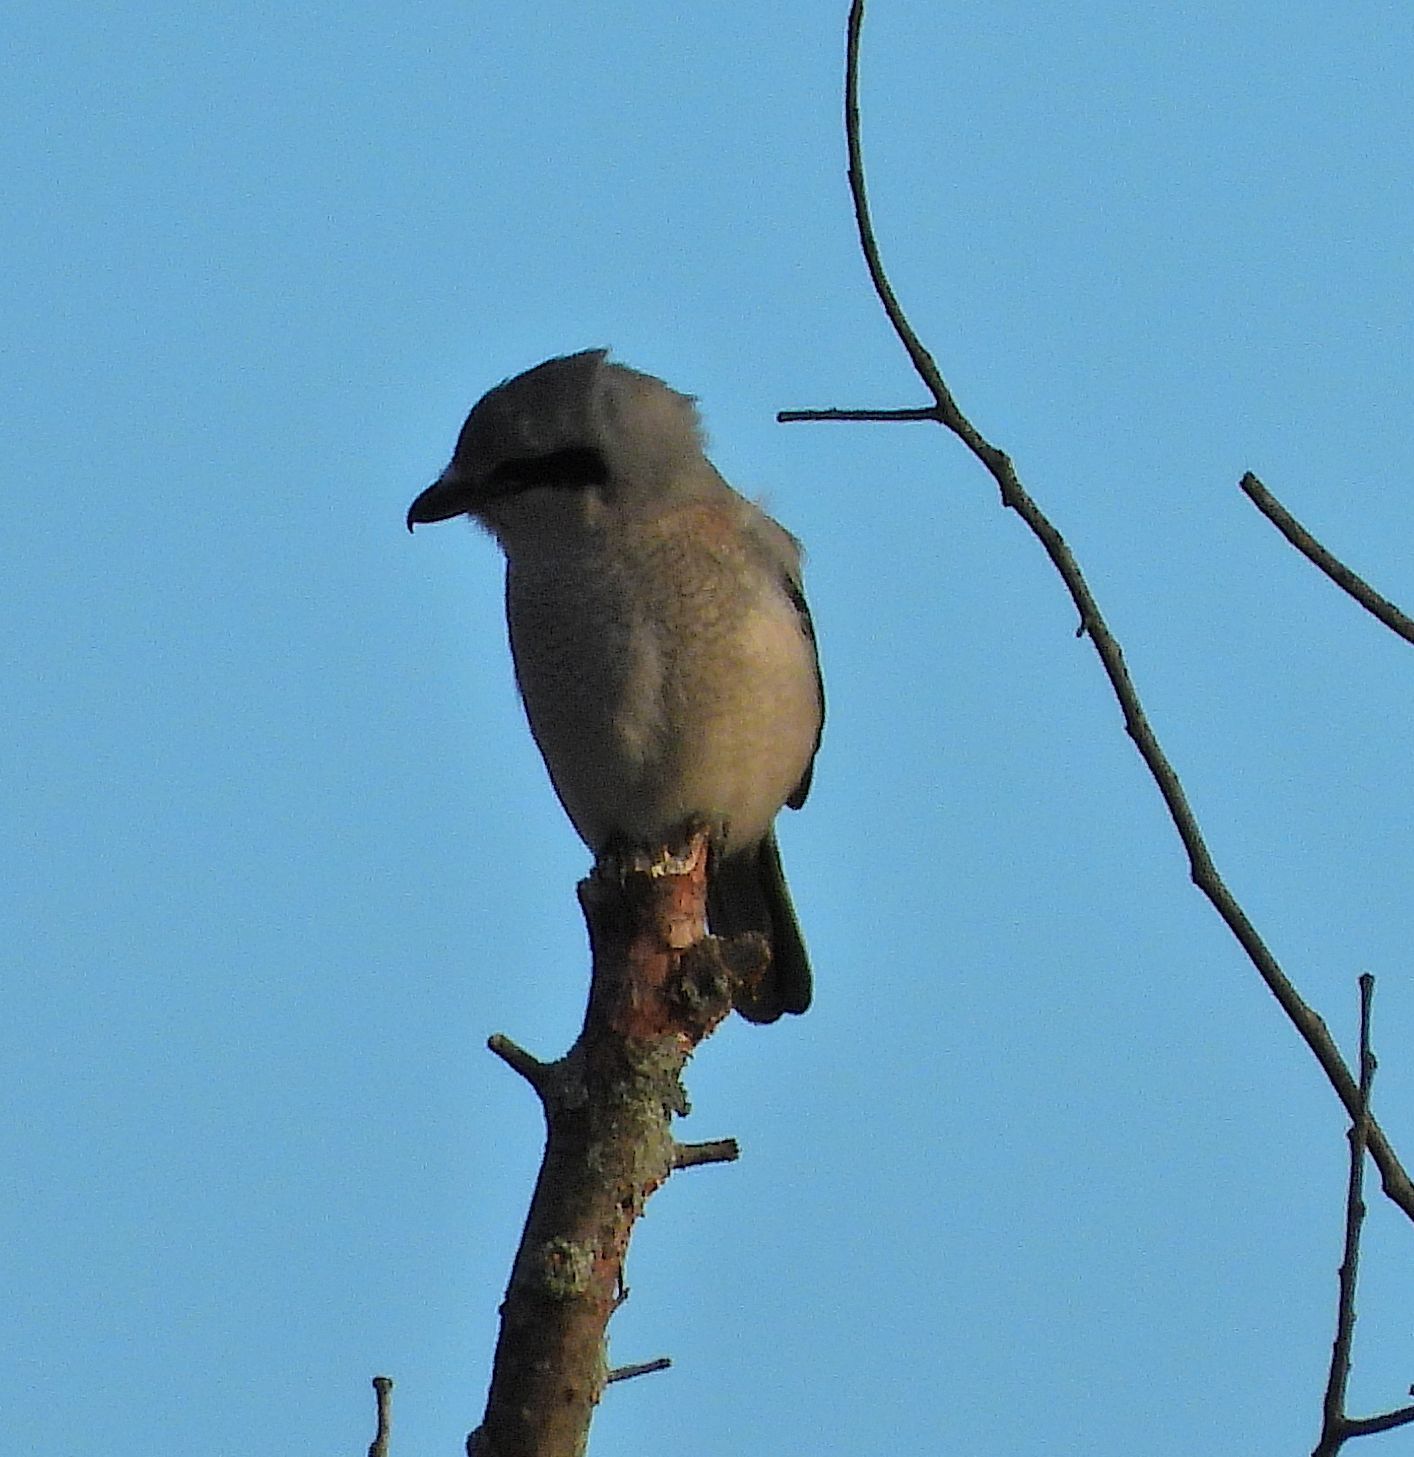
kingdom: Animalia
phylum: Chordata
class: Aves
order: Passeriformes
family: Laniidae
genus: Lanius
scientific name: Lanius borealis
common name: Northern shrike
